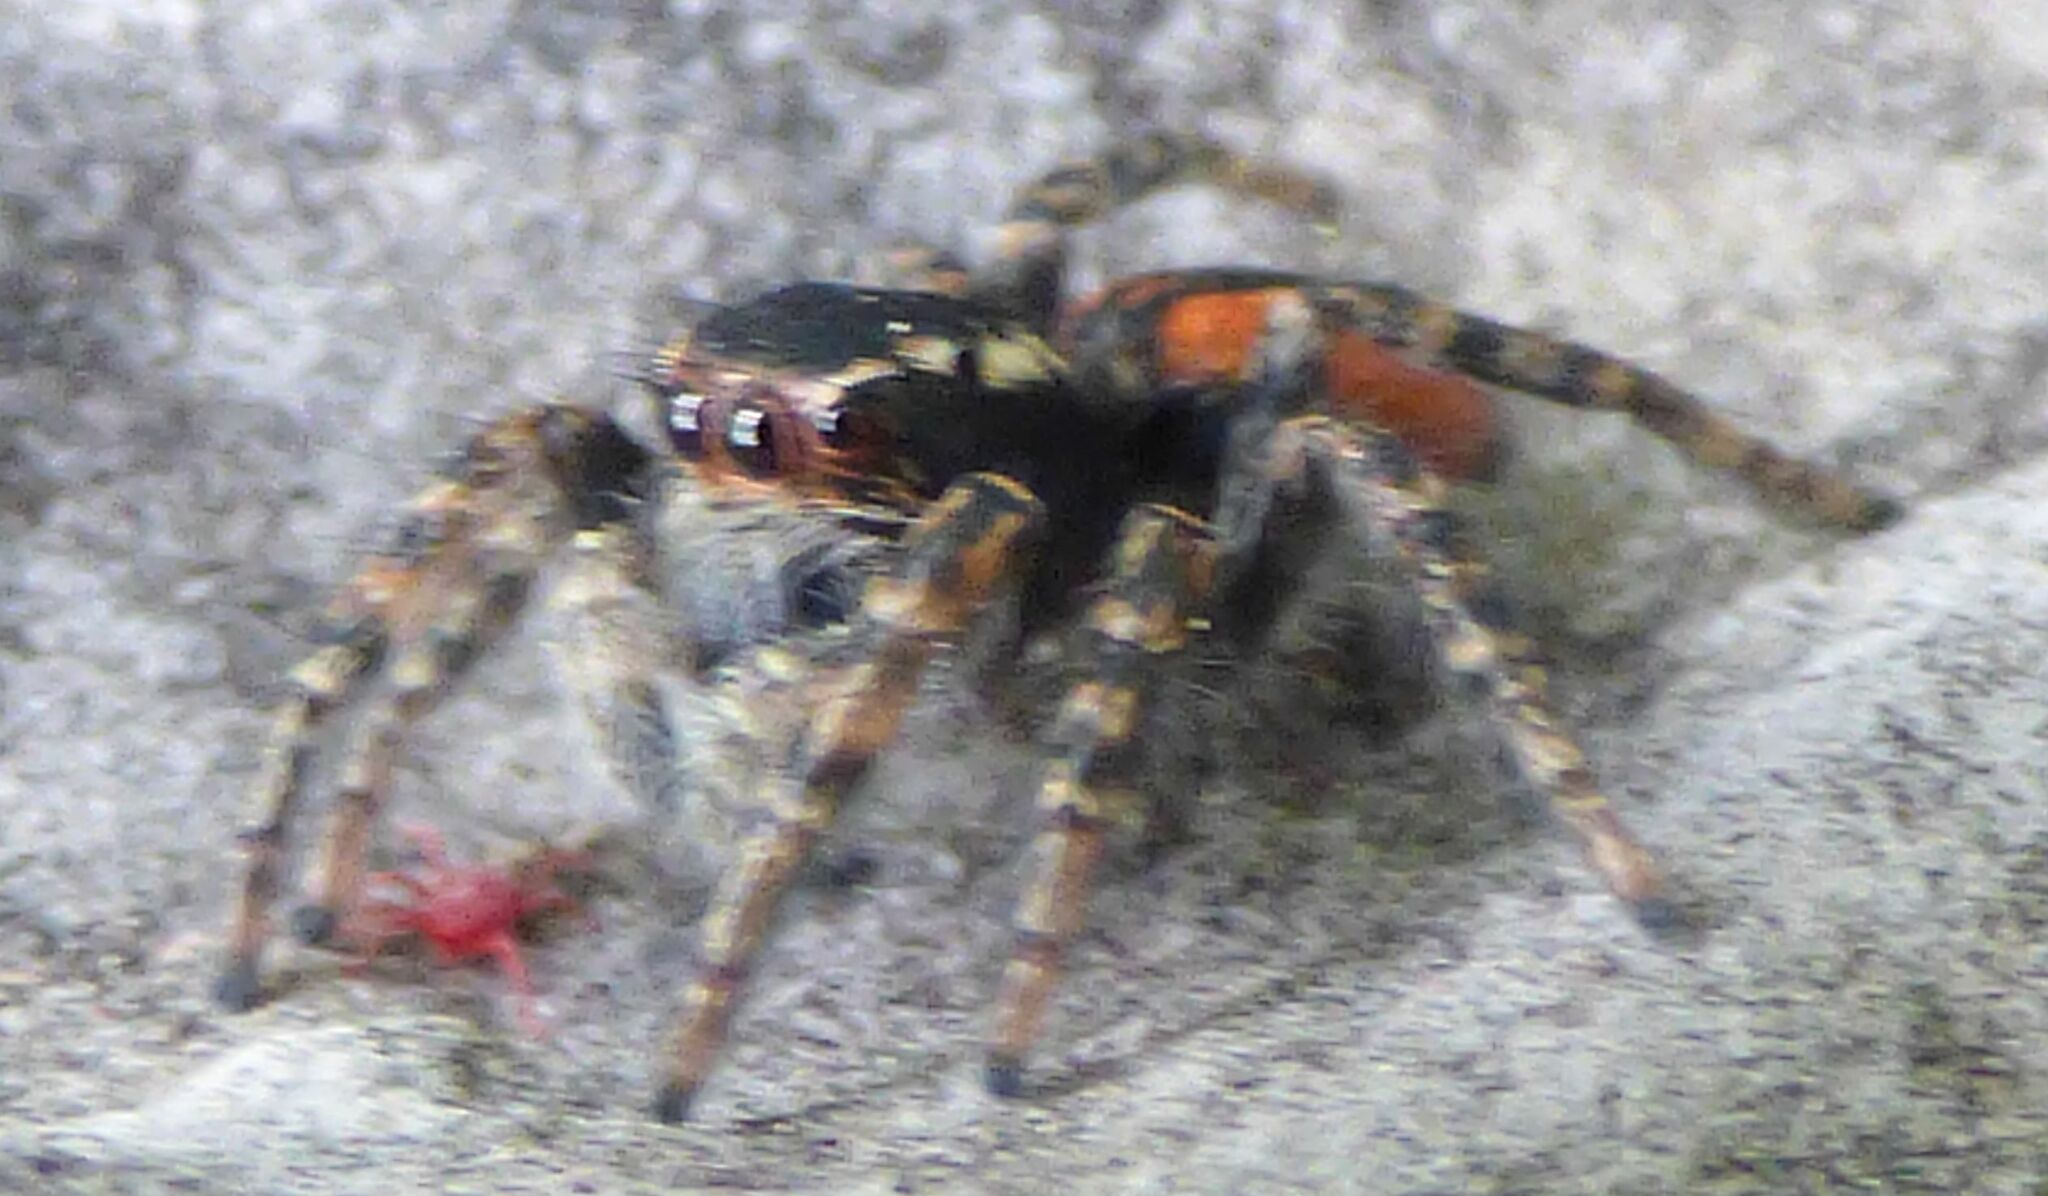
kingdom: Animalia
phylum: Arthropoda
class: Arachnida
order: Araneae
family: Salticidae
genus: Philaeus
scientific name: Philaeus chrysops
